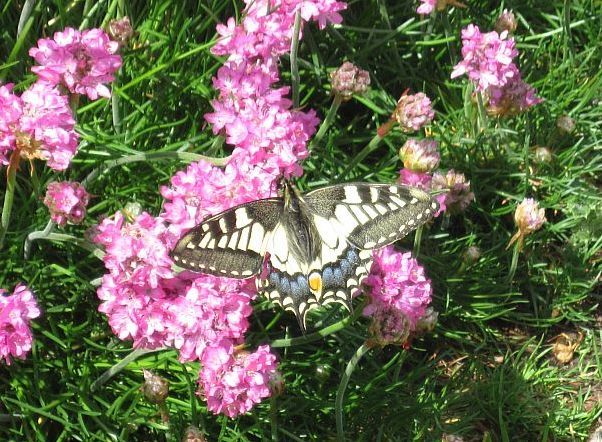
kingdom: Animalia
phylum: Arthropoda
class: Insecta
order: Lepidoptera
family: Papilionidae
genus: Papilio
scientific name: Papilio machaon
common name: Swallowtail
